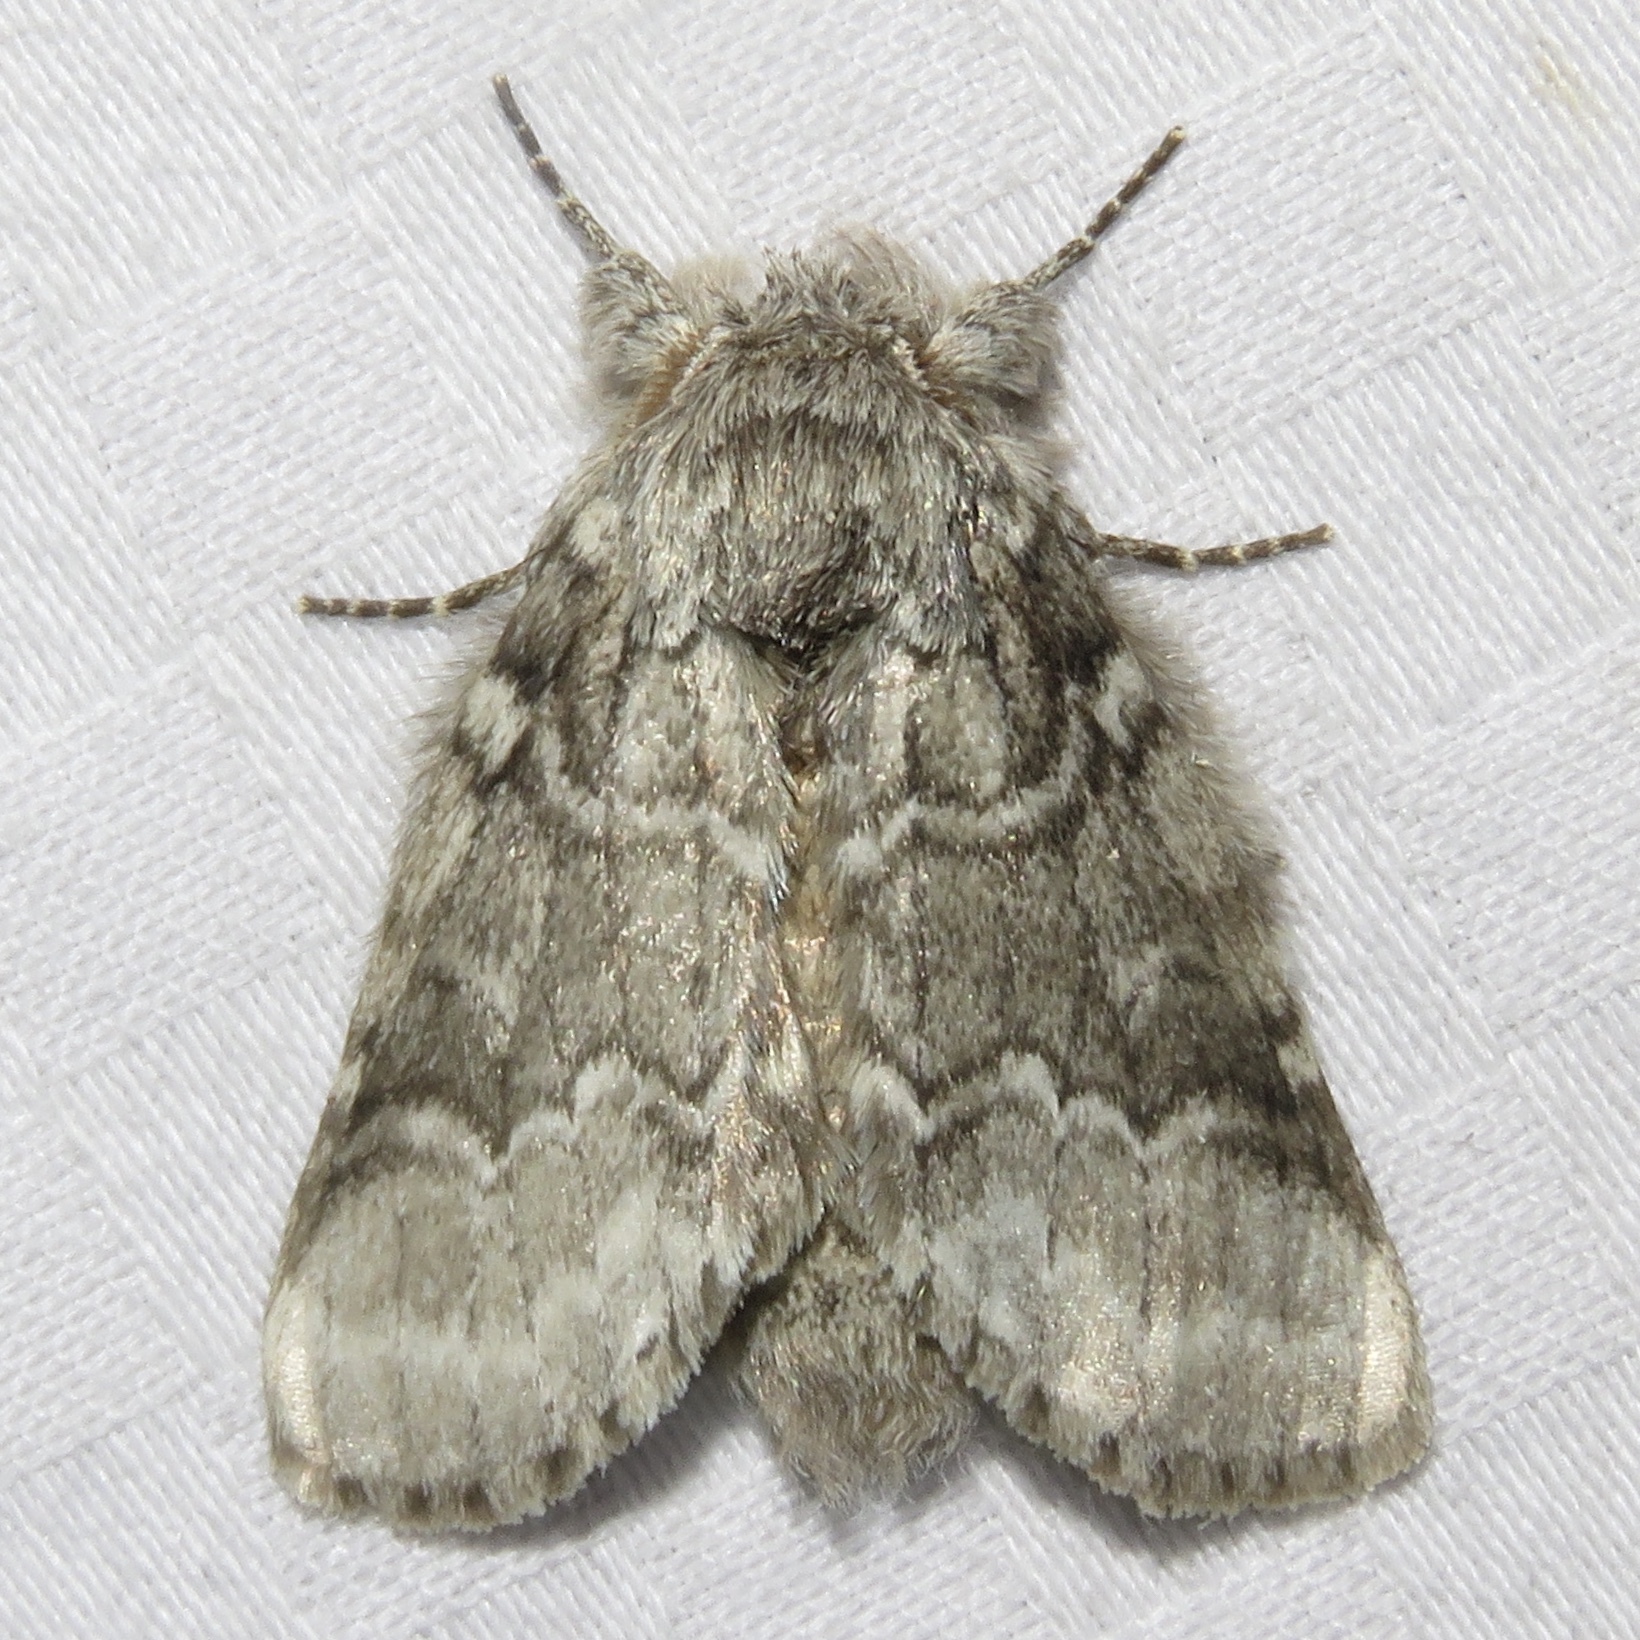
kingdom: Animalia
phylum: Arthropoda
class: Insecta
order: Lepidoptera
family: Notodontidae
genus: Lochmaeus
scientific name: Lochmaeus bilineata
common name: Double-lined prominent
